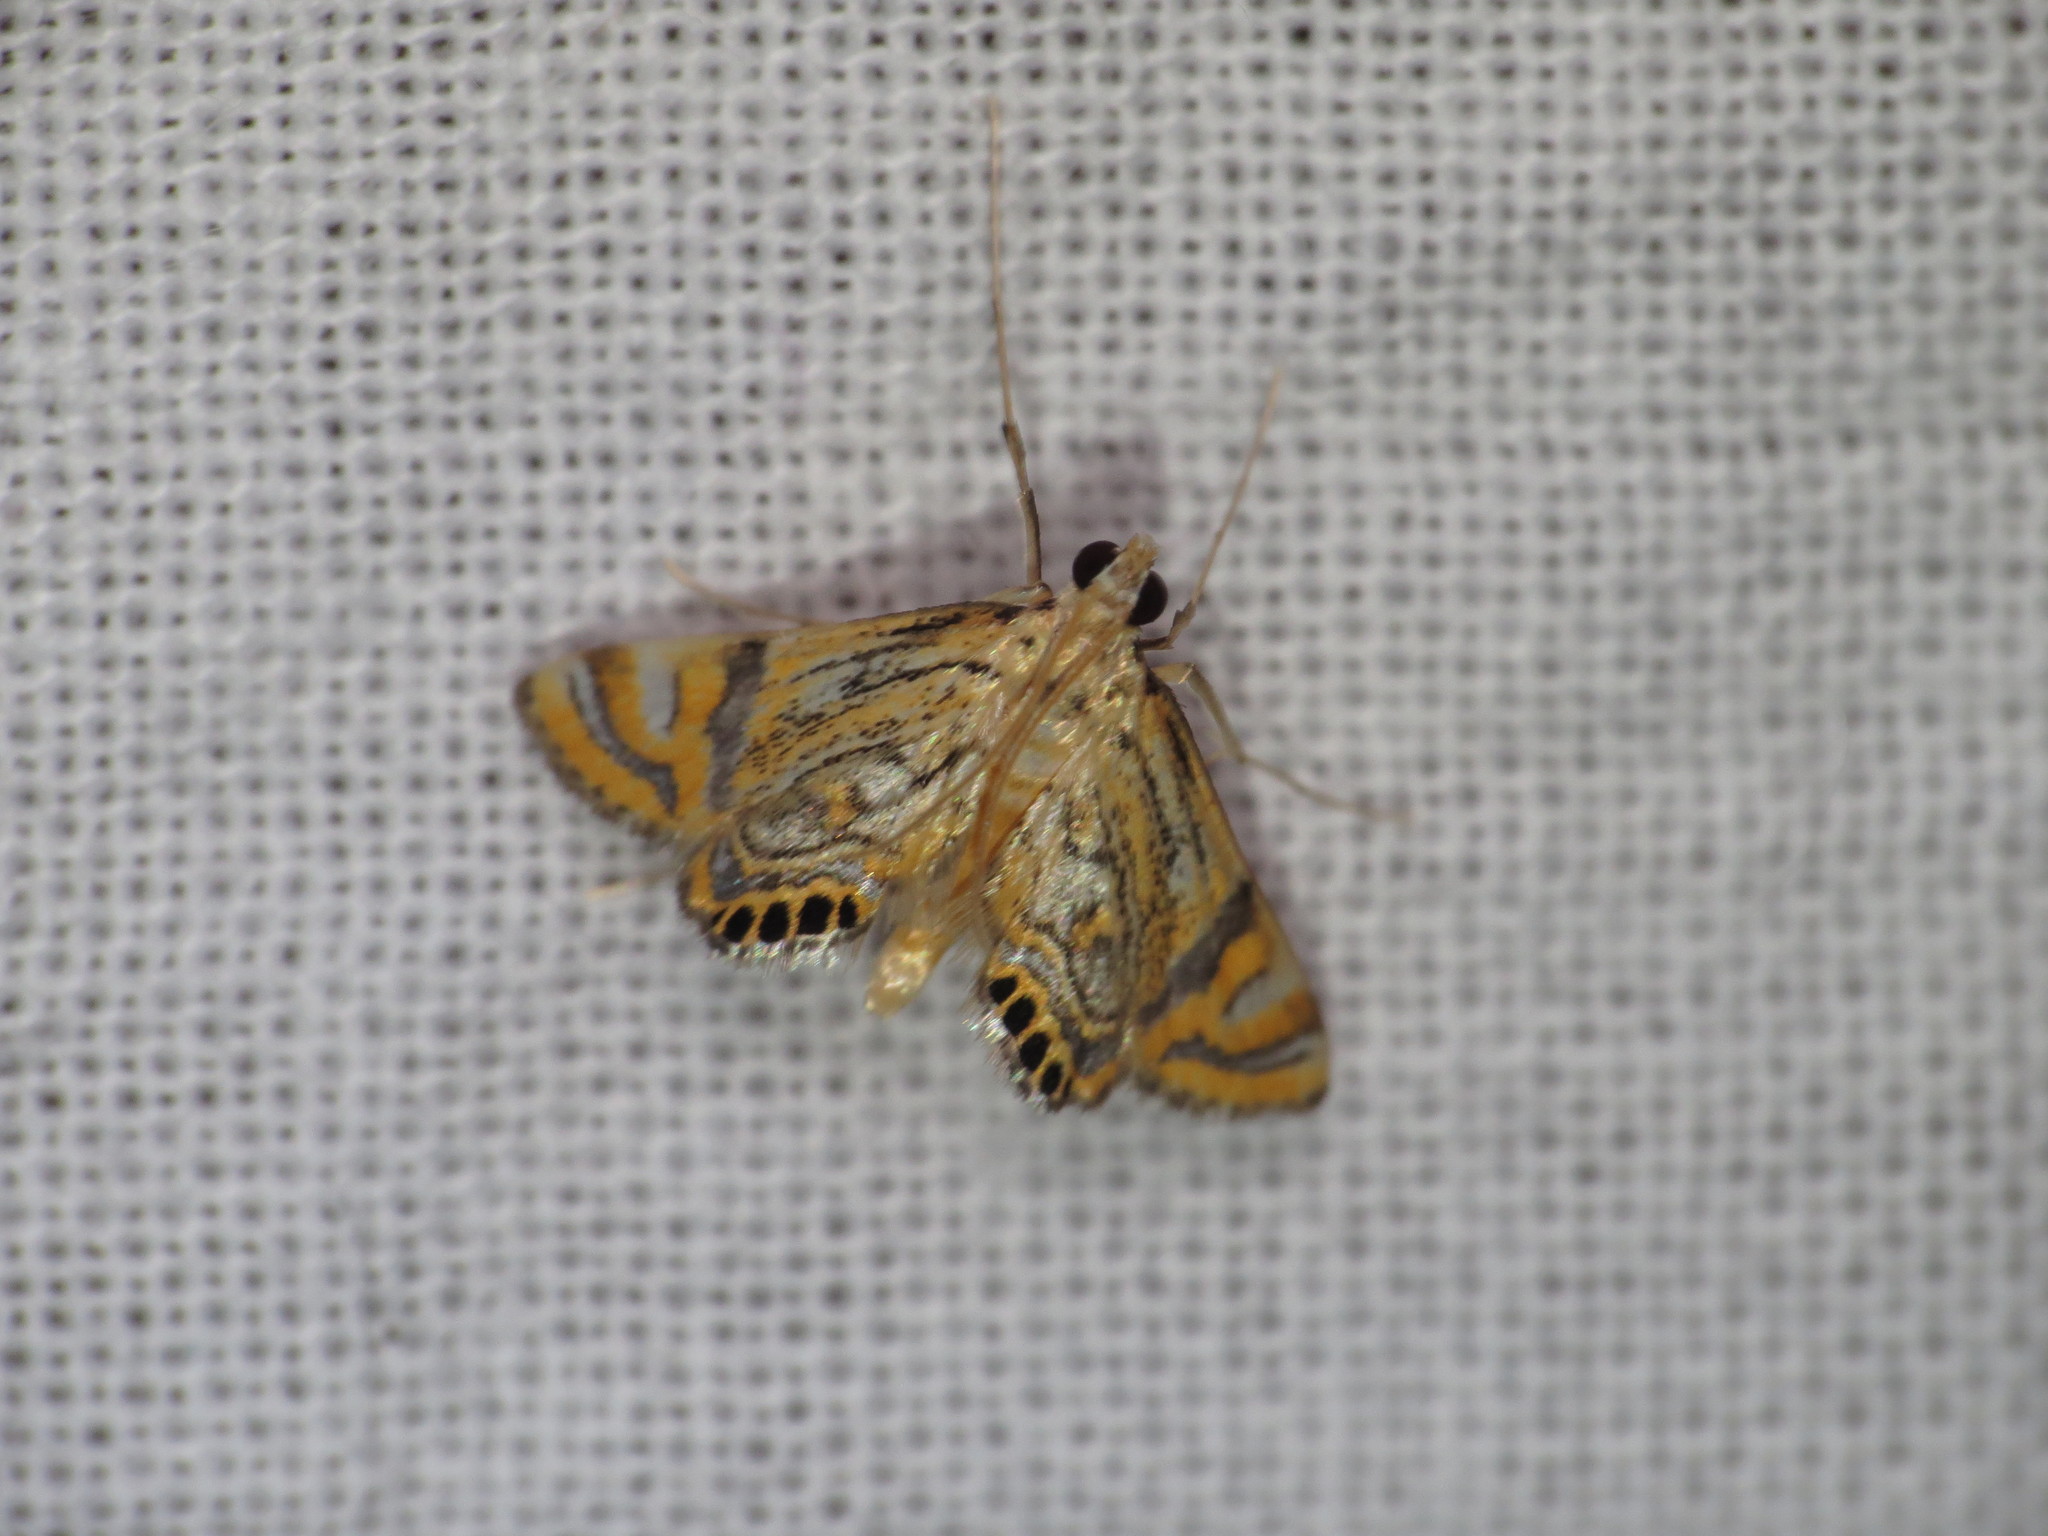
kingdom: Animalia
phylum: Arthropoda
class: Insecta
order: Lepidoptera
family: Crambidae
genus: Cataclysta
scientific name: Cataclysta lampetialis
